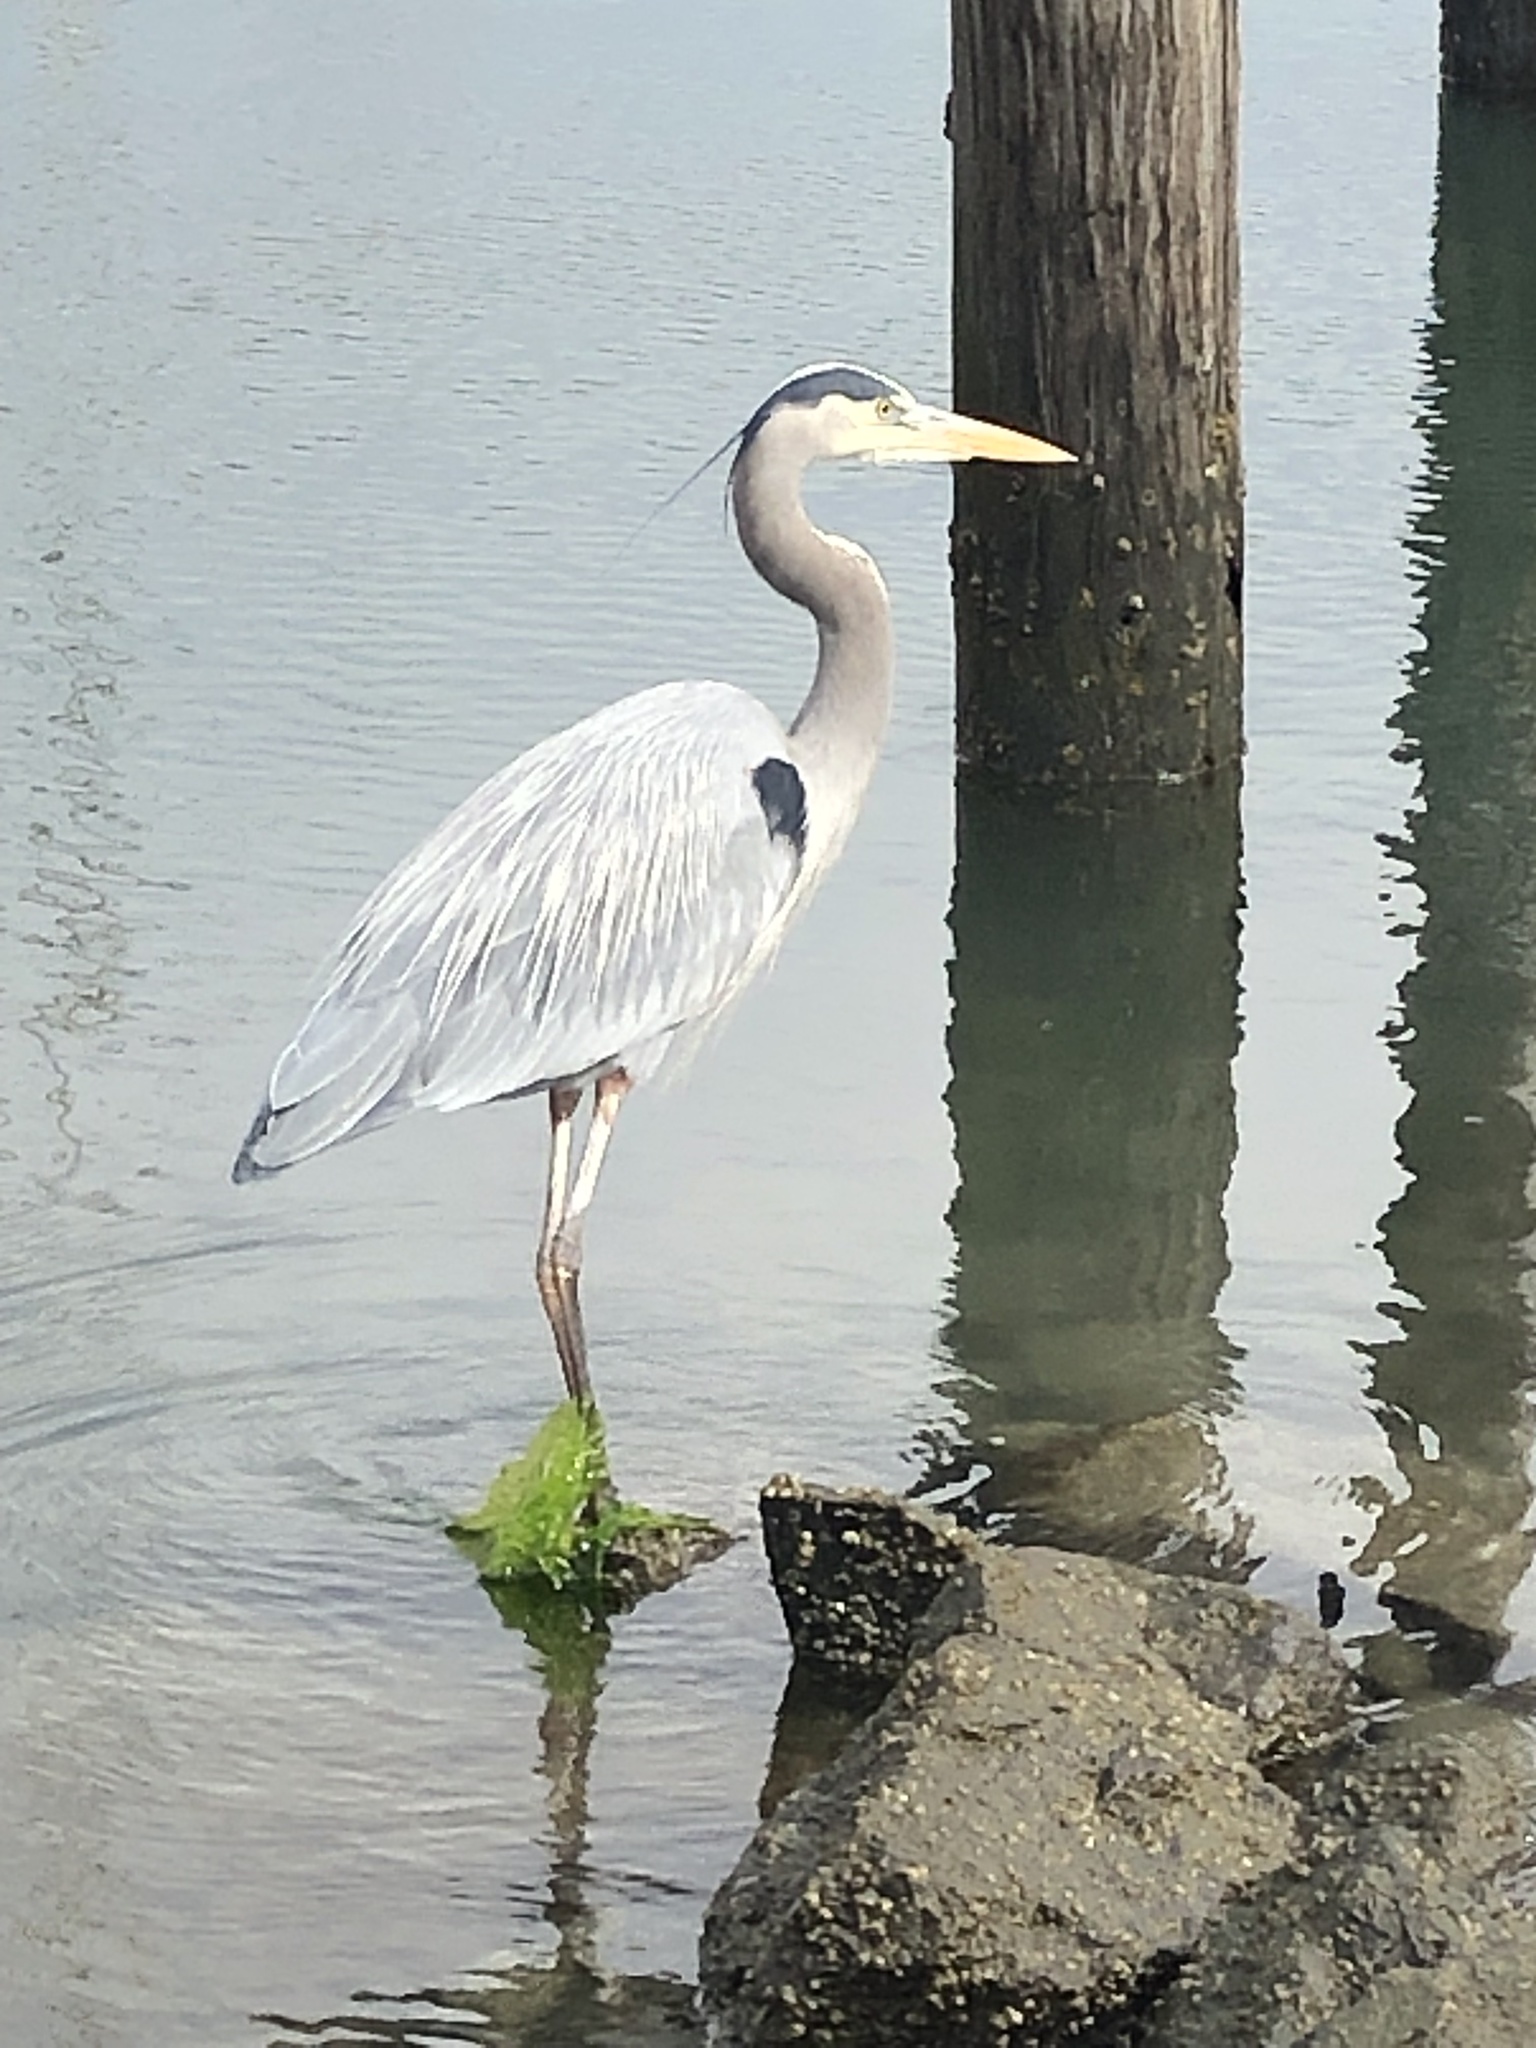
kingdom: Animalia
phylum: Chordata
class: Aves
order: Pelecaniformes
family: Ardeidae
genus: Ardea
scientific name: Ardea herodias
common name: Great blue heron
